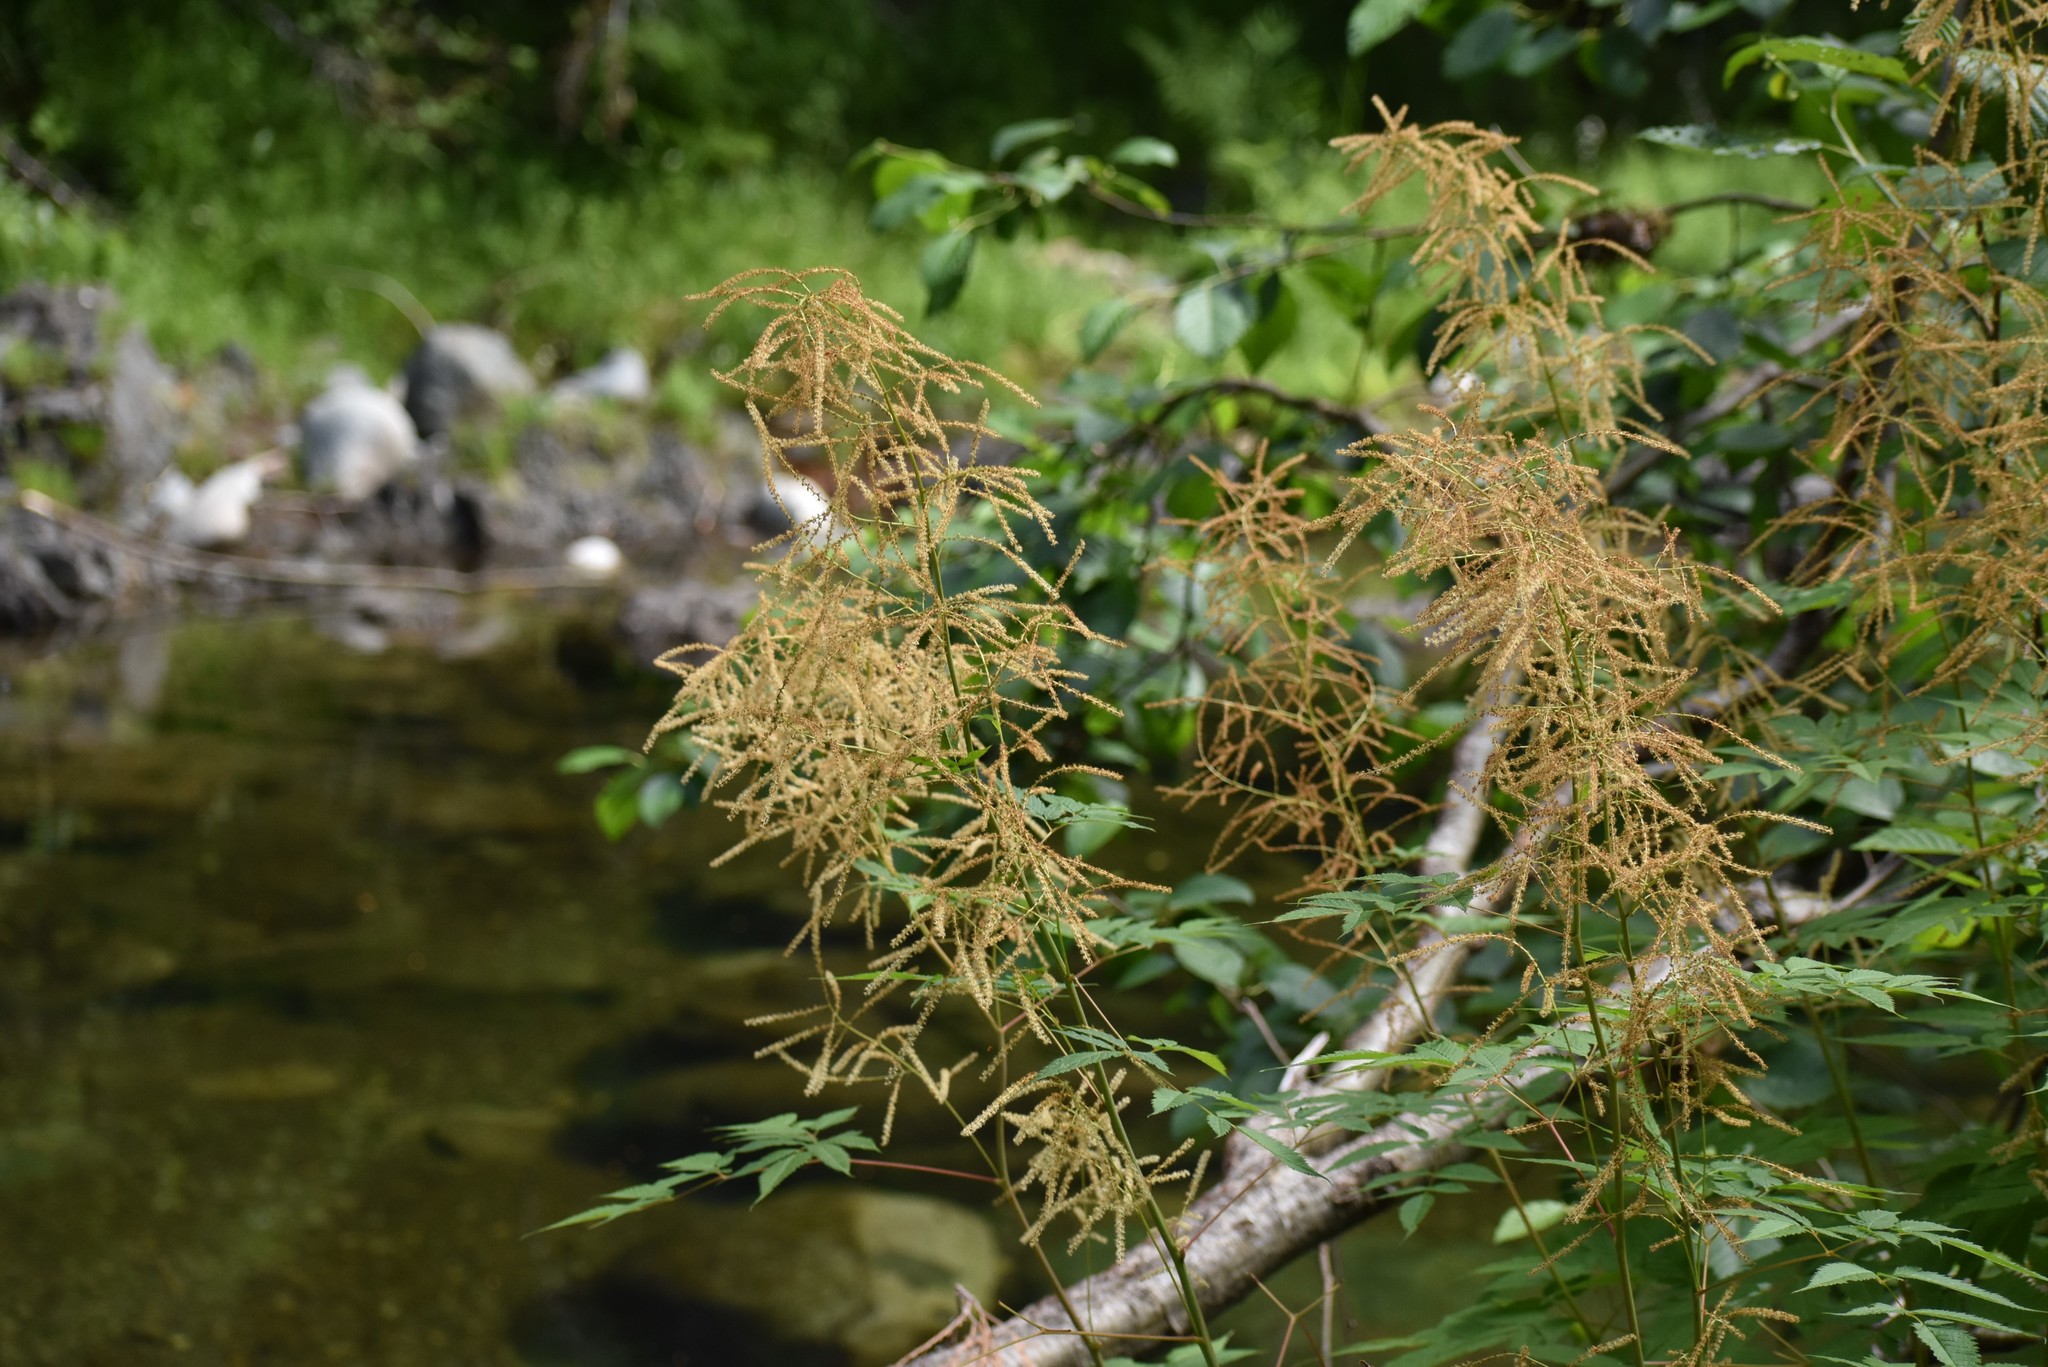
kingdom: Plantae
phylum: Tracheophyta
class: Magnoliopsida
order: Rosales
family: Rosaceae
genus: Aruncus
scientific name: Aruncus dioicus
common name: Buck's-beard
